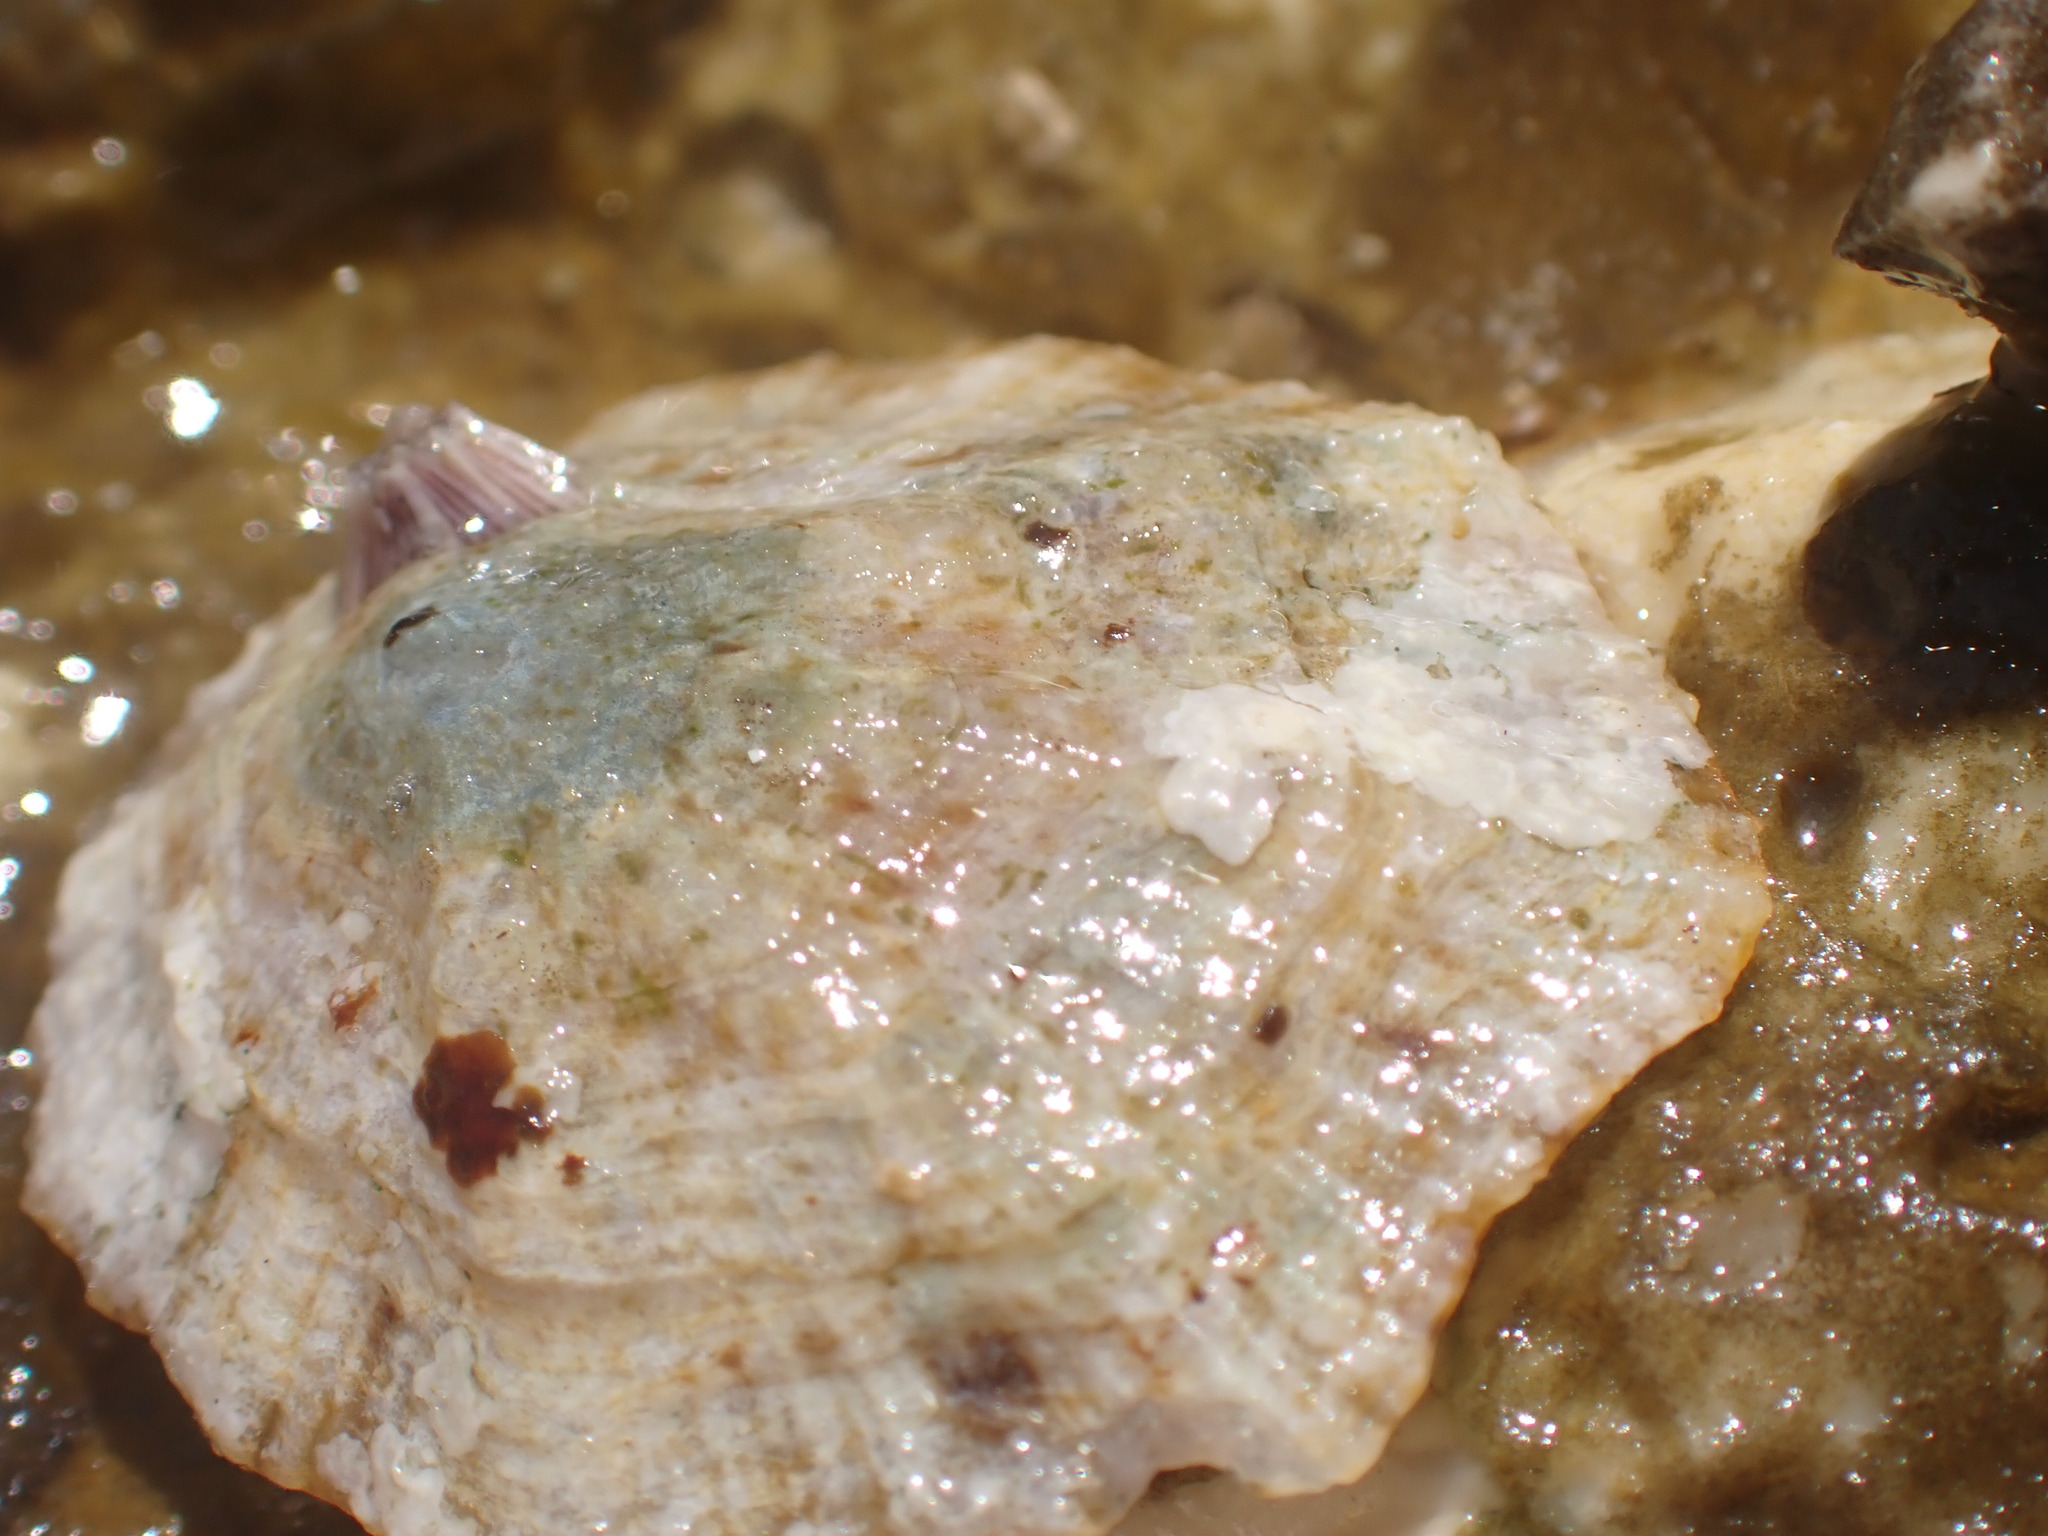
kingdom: Animalia
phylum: Mollusca
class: Gastropoda
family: Patellidae
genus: Patella
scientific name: Patella caerulea
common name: Mediterranean limpet
